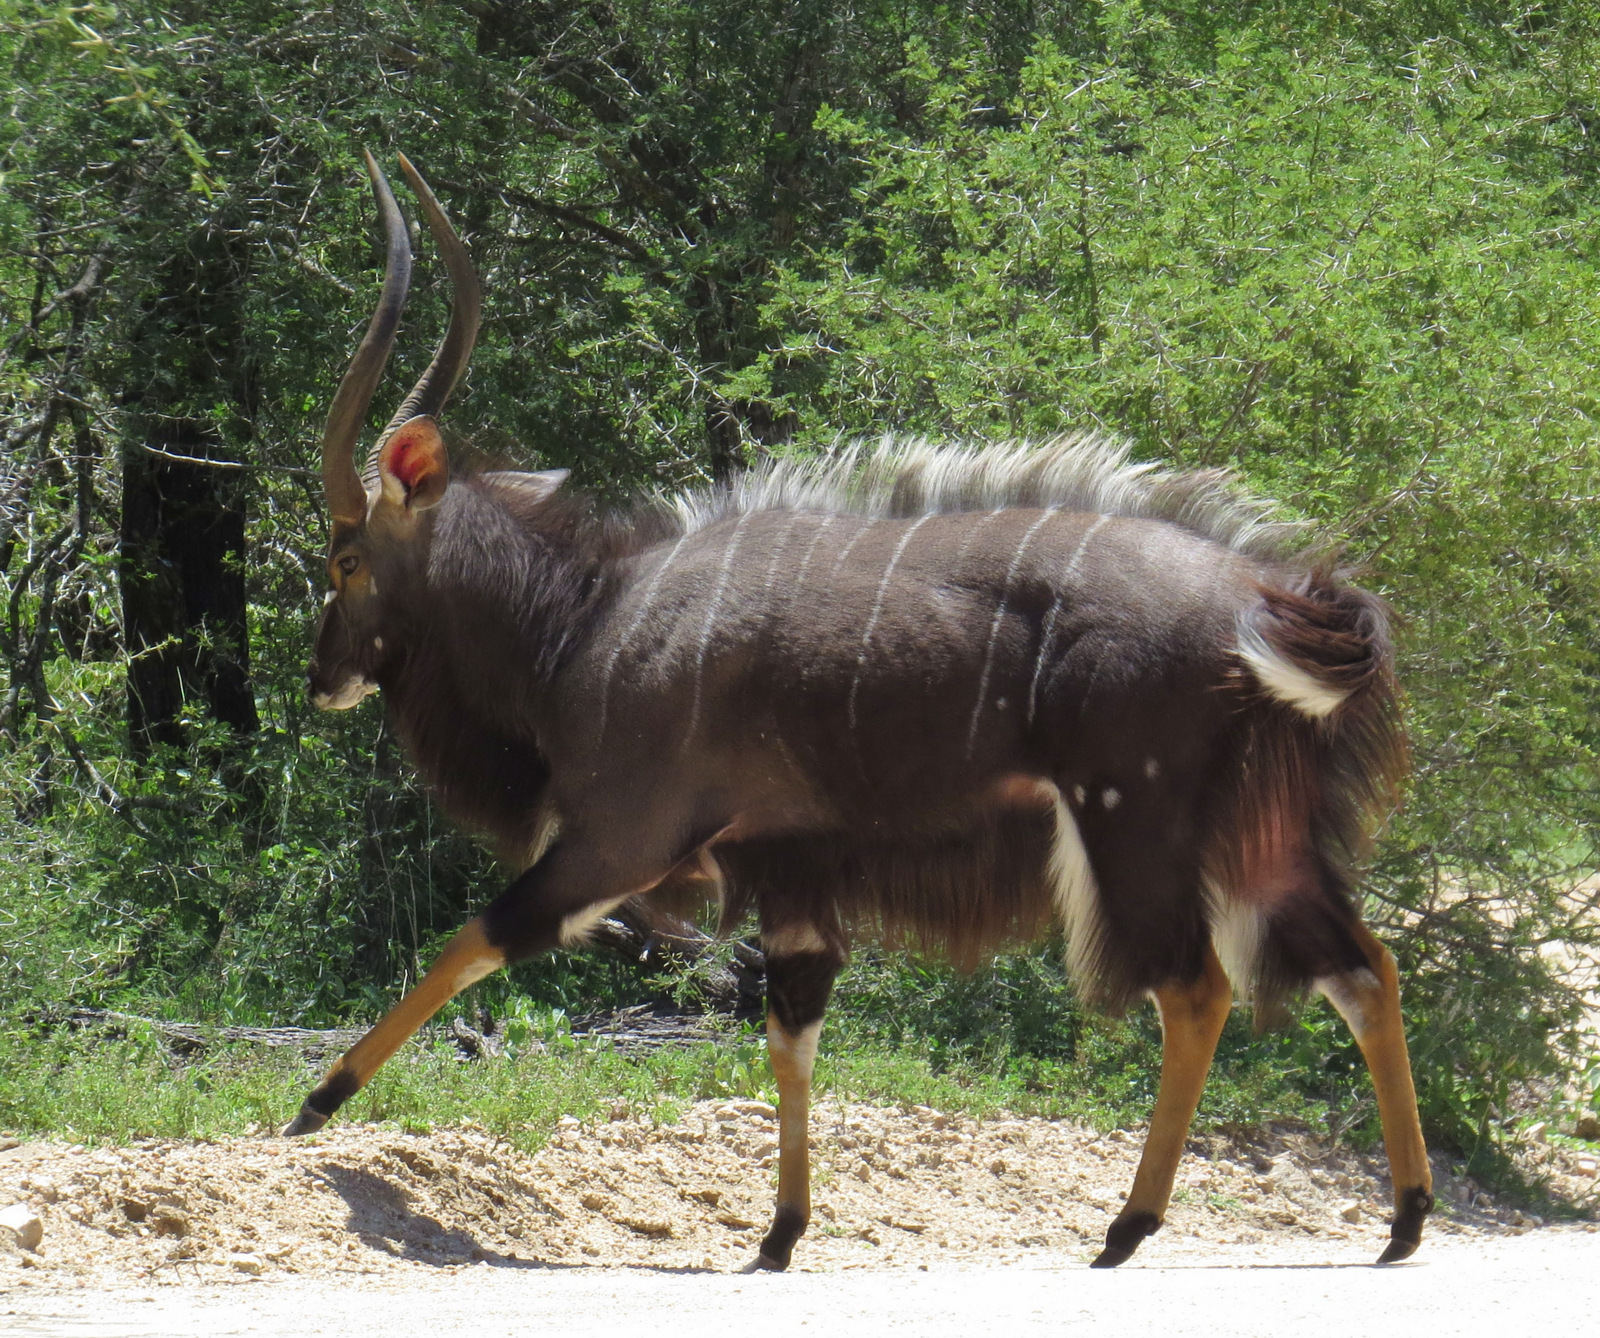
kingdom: Animalia
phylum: Chordata
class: Mammalia
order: Artiodactyla
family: Bovidae
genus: Tragelaphus
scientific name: Tragelaphus angasii
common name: Nyala
